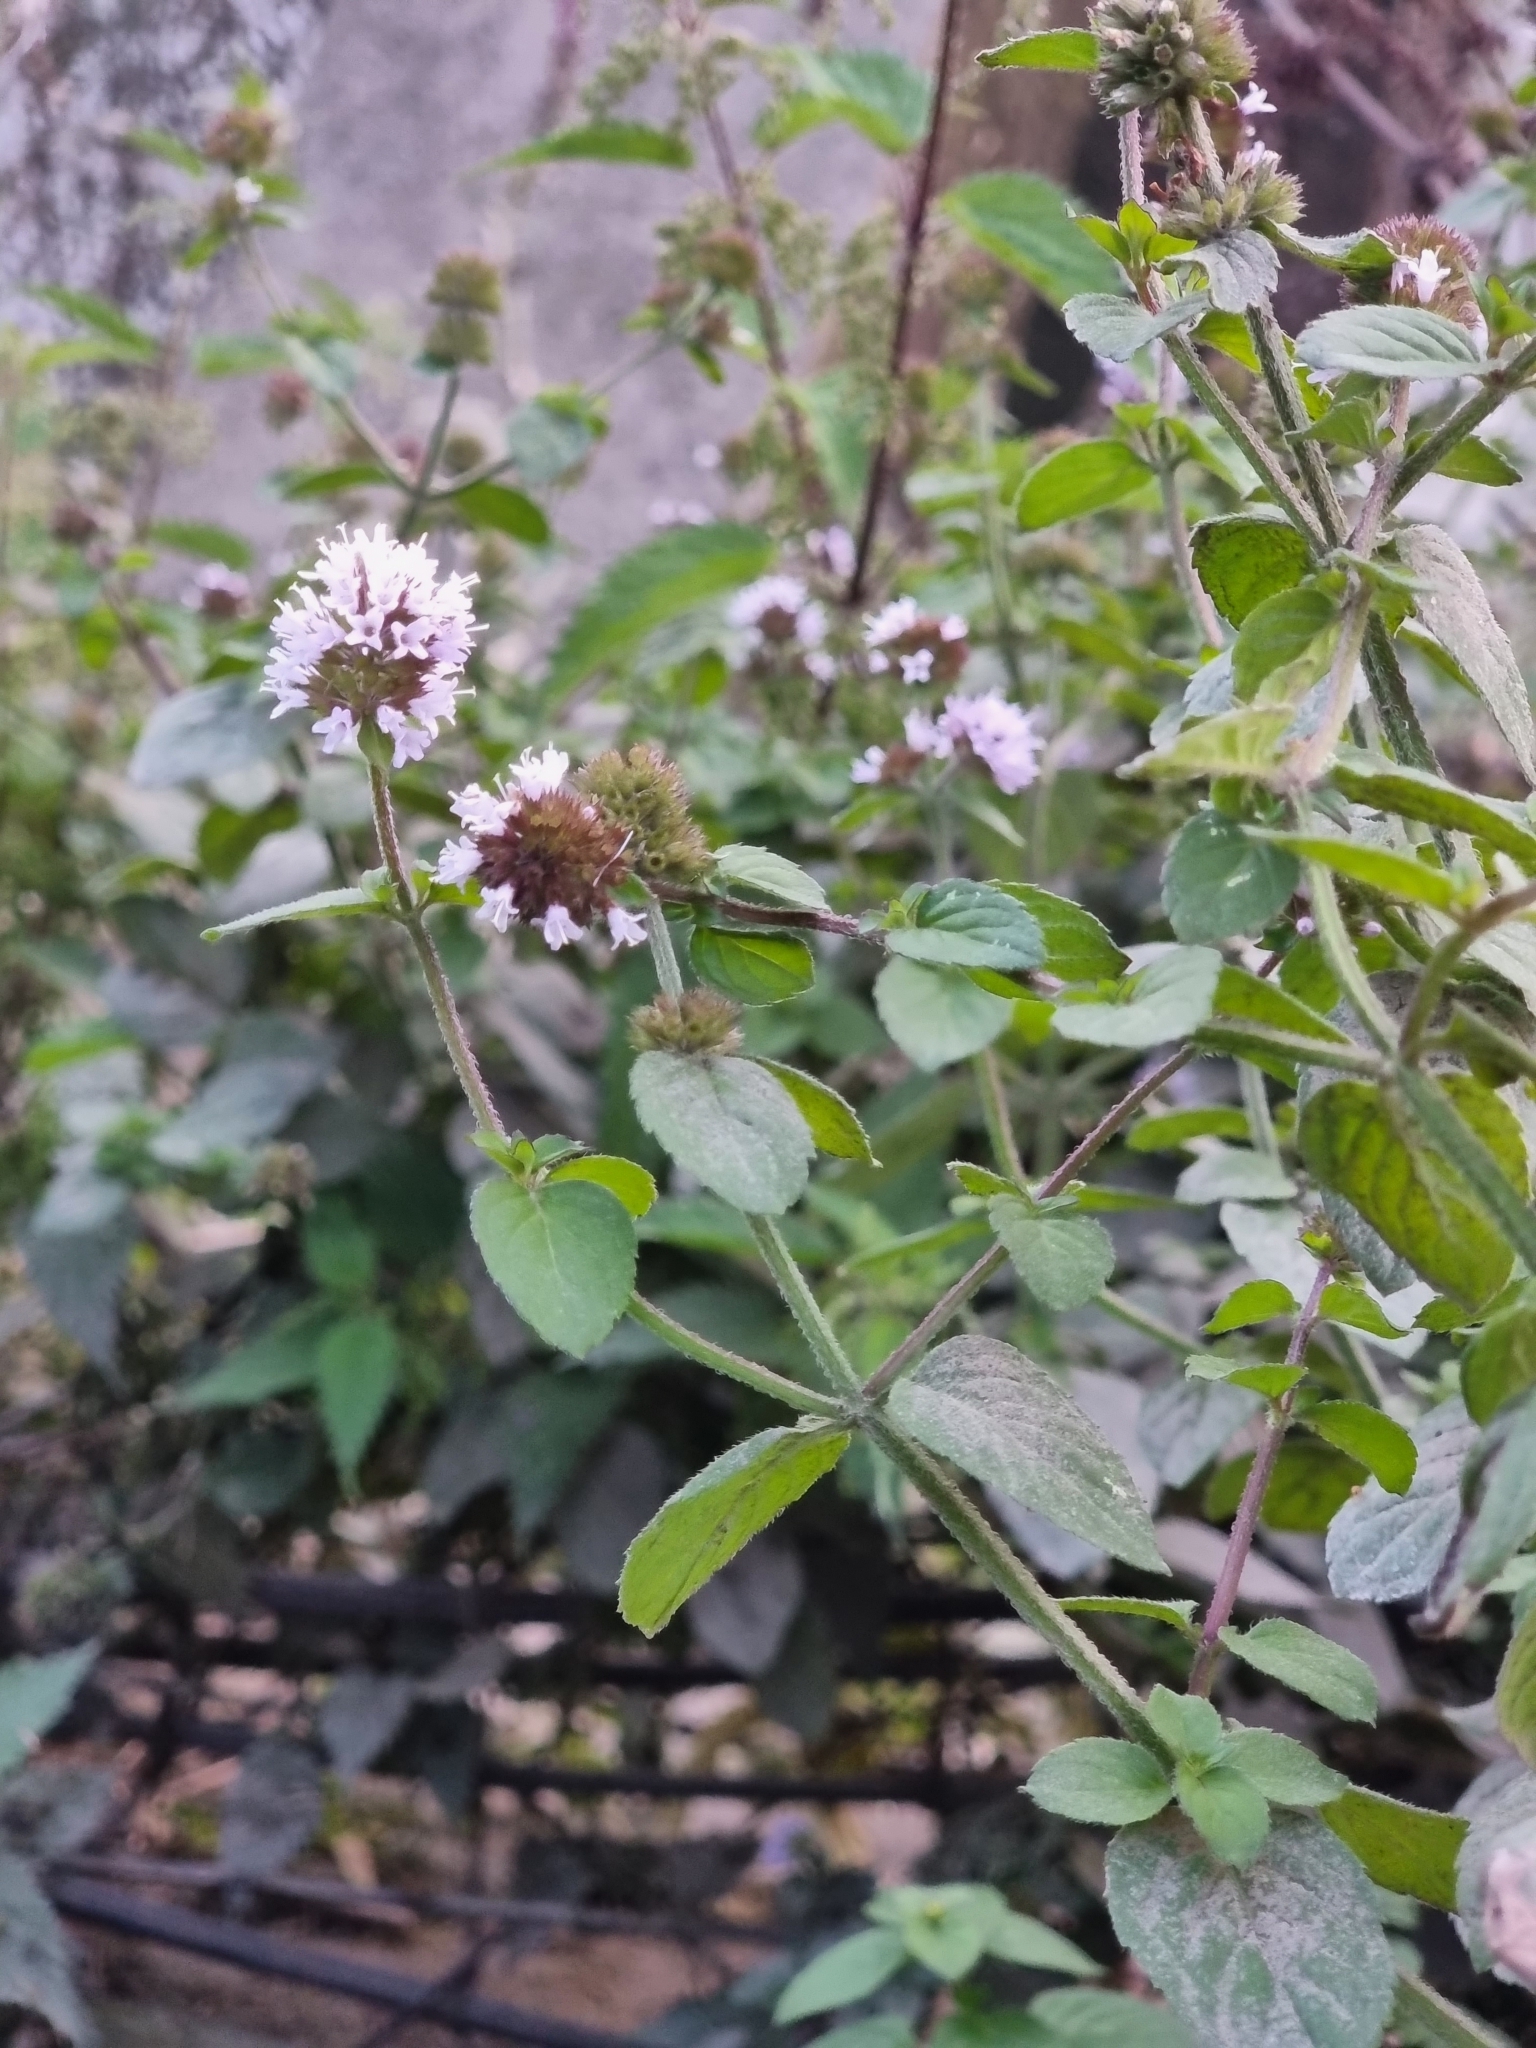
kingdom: Plantae
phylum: Tracheophyta
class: Magnoliopsida
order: Lamiales
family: Lamiaceae
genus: Mentha
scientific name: Mentha aquatica
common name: Water mint
